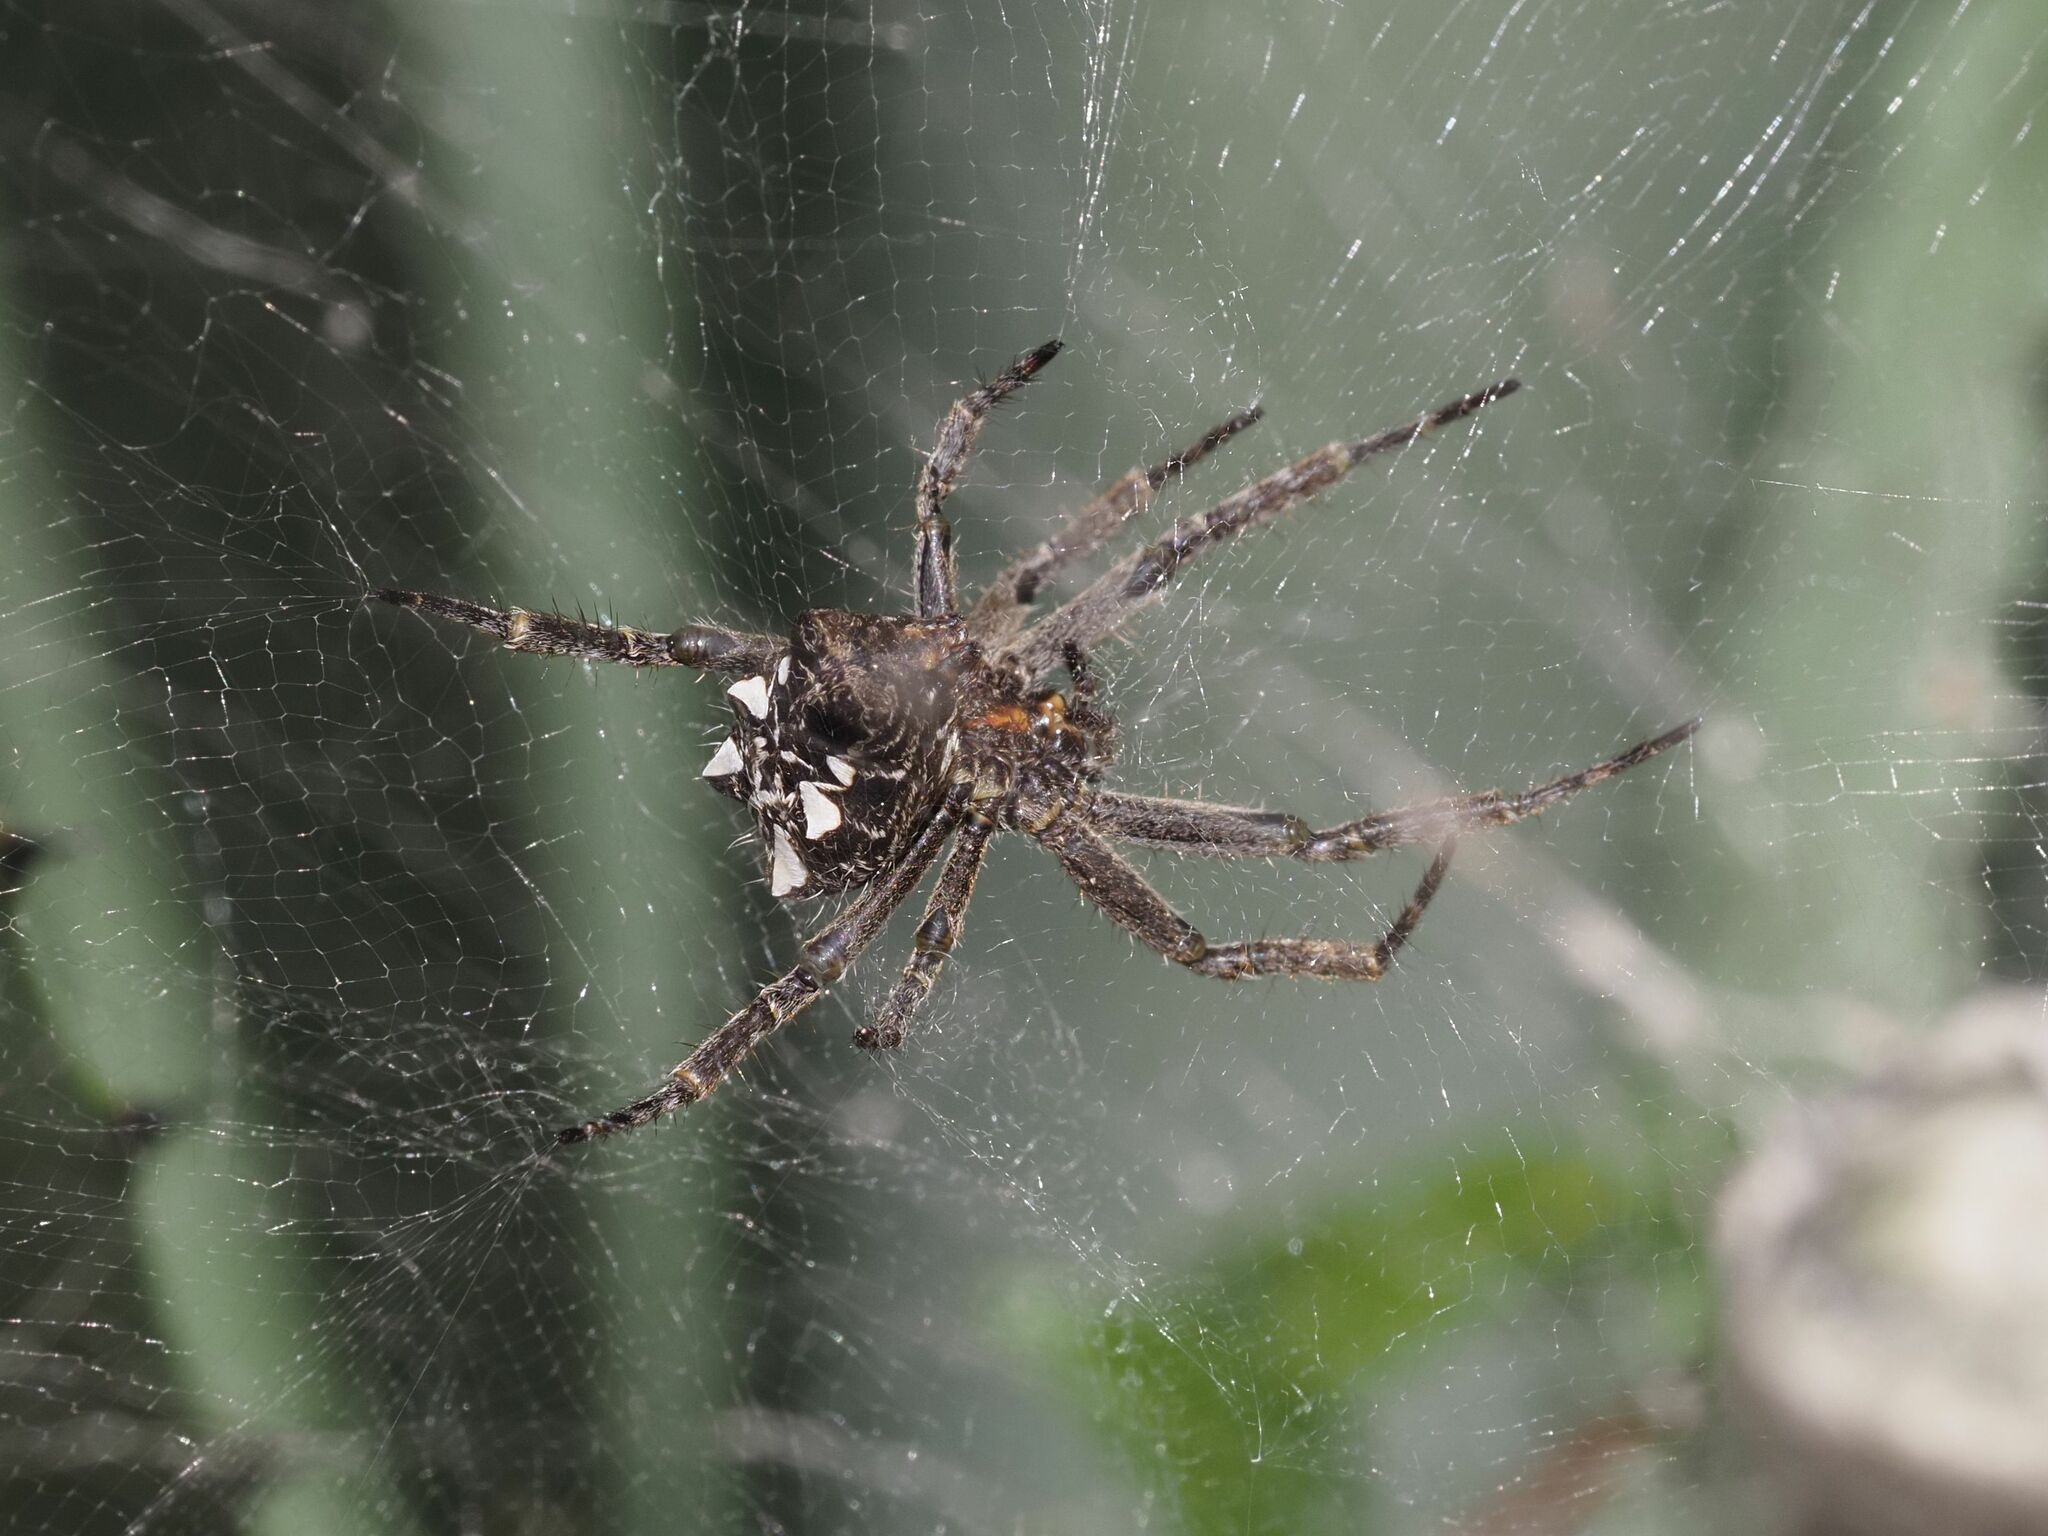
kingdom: Animalia
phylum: Arthropoda
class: Arachnida
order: Araneae
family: Araneidae
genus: Cyrtophora
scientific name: Cyrtophora citricola
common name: Orb weavers
